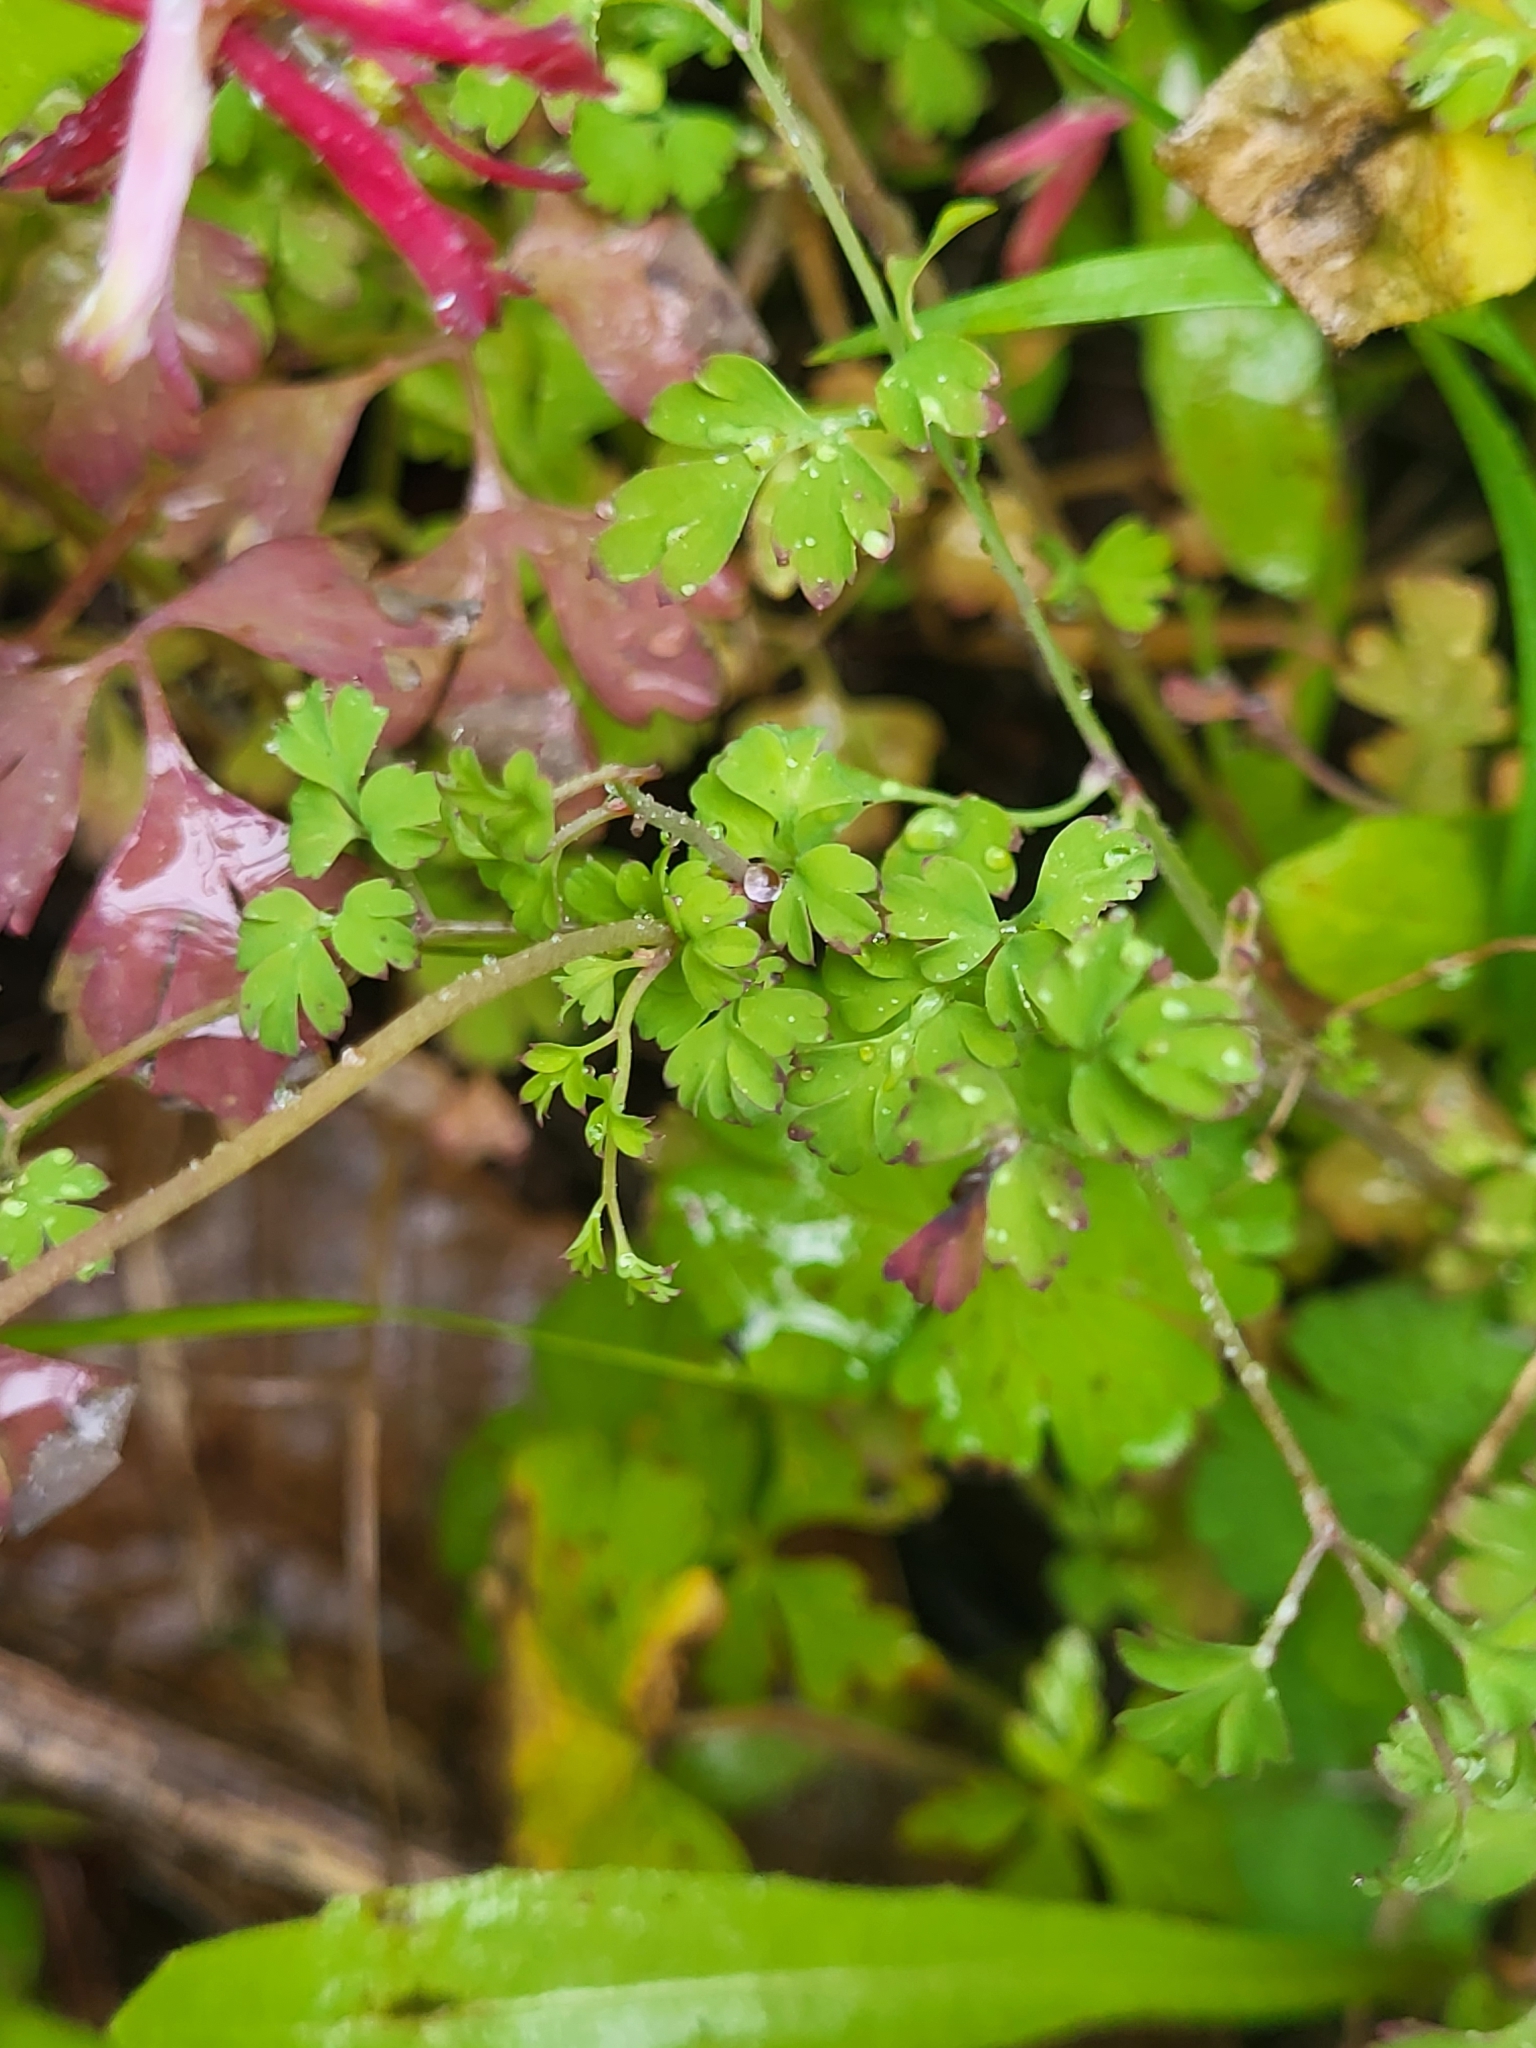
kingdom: Plantae
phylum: Tracheophyta
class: Magnoliopsida
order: Ranunculales
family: Papaveraceae
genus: Fumaria
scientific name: Fumaria coccinea
